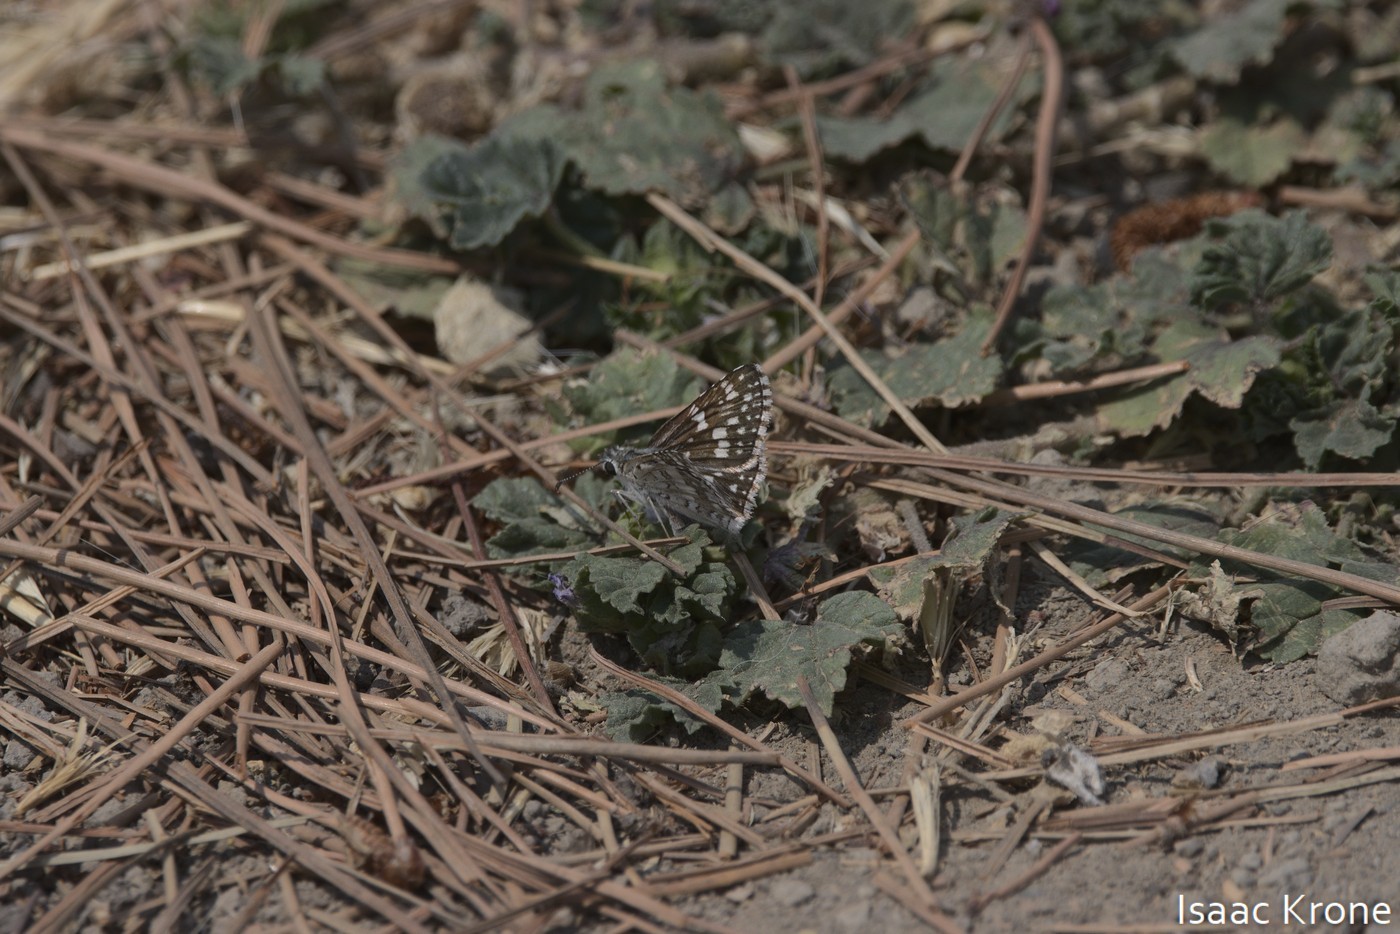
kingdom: Animalia
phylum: Arthropoda
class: Insecta
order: Lepidoptera
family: Hesperiidae
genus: Burnsius
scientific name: Burnsius communis
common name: Common checkered-skipper
